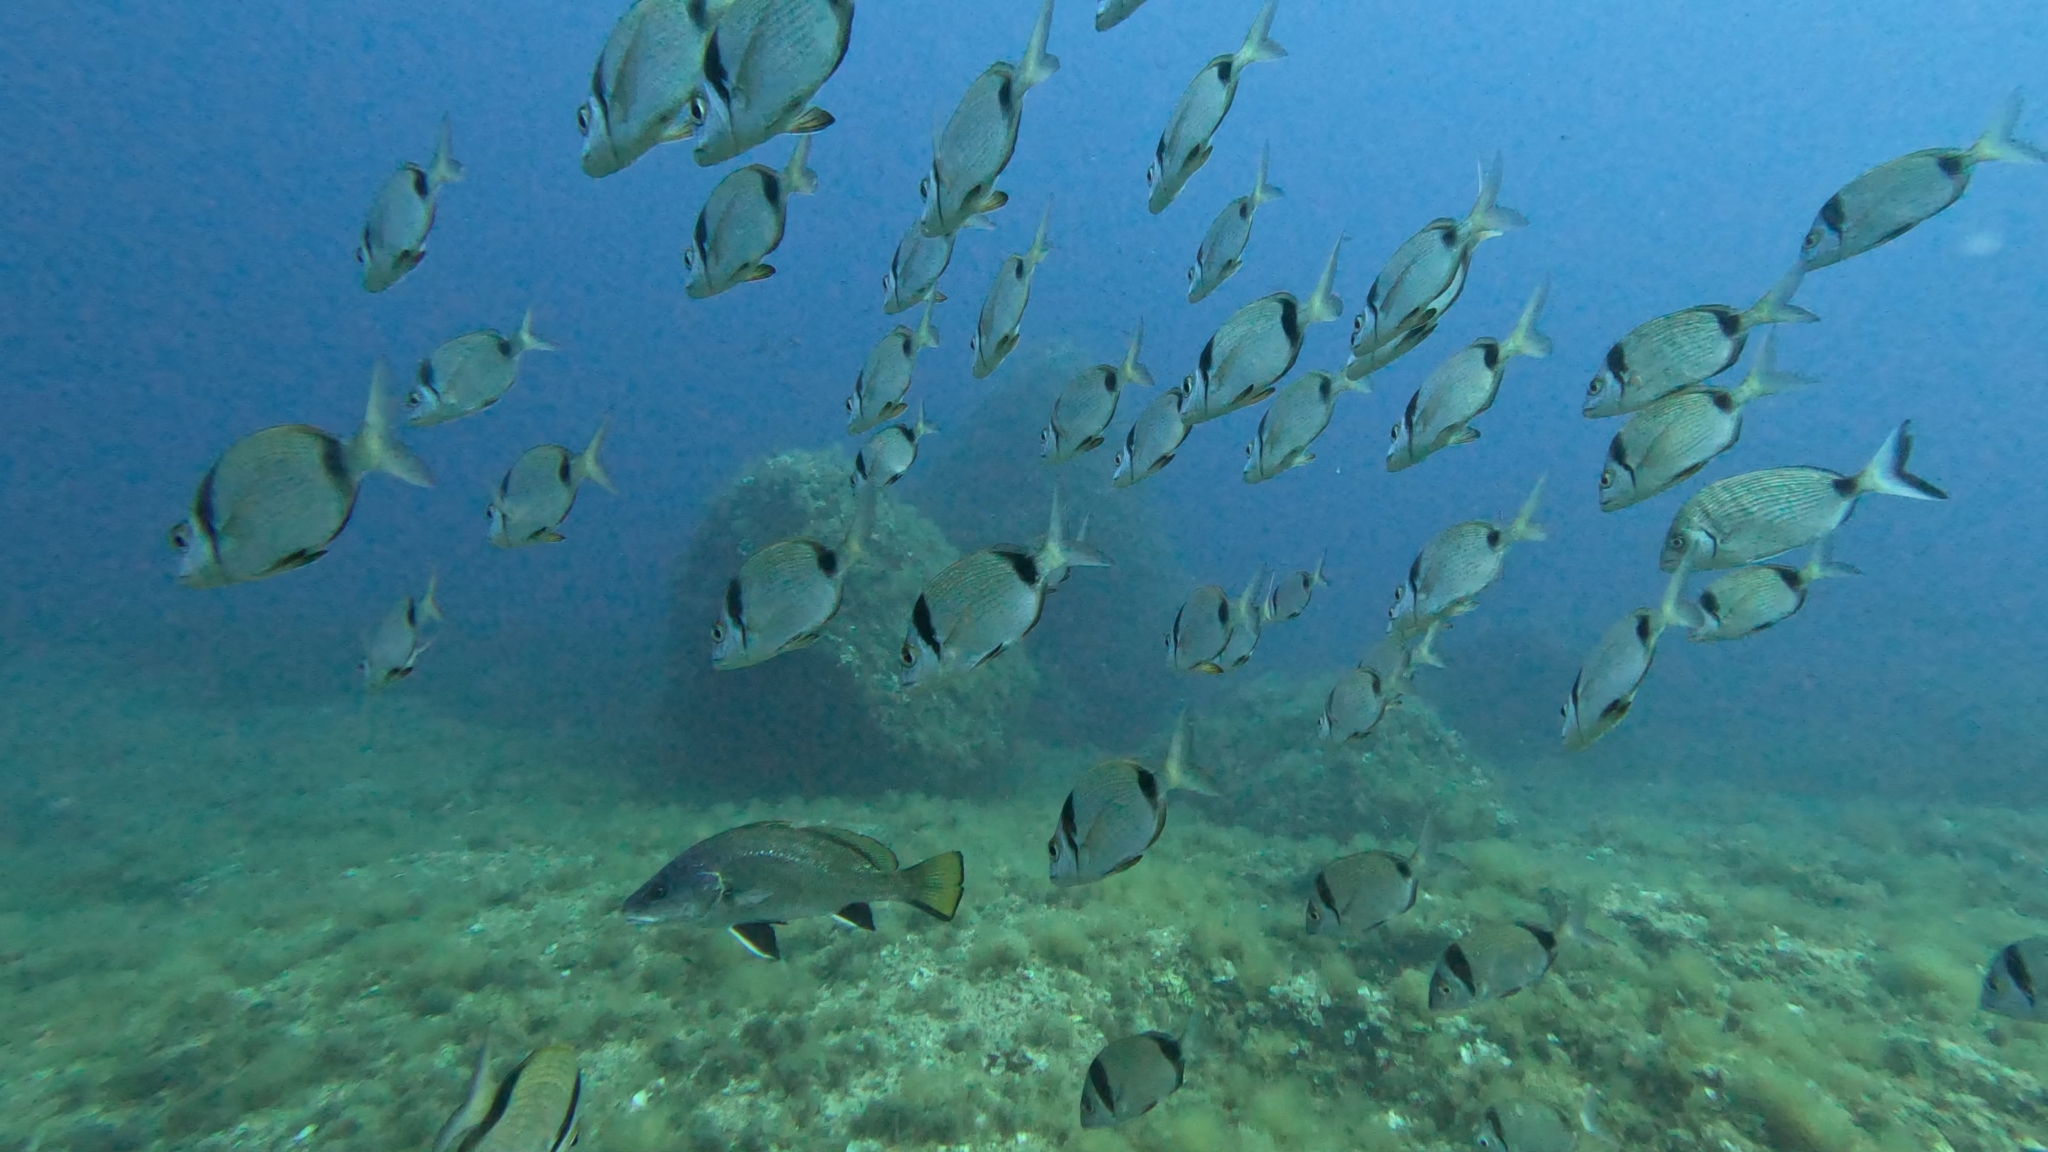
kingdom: Animalia
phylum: Chordata
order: Perciformes
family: Sparidae
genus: Diplodus
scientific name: Diplodus vulgaris
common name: Common two-banded seabream
